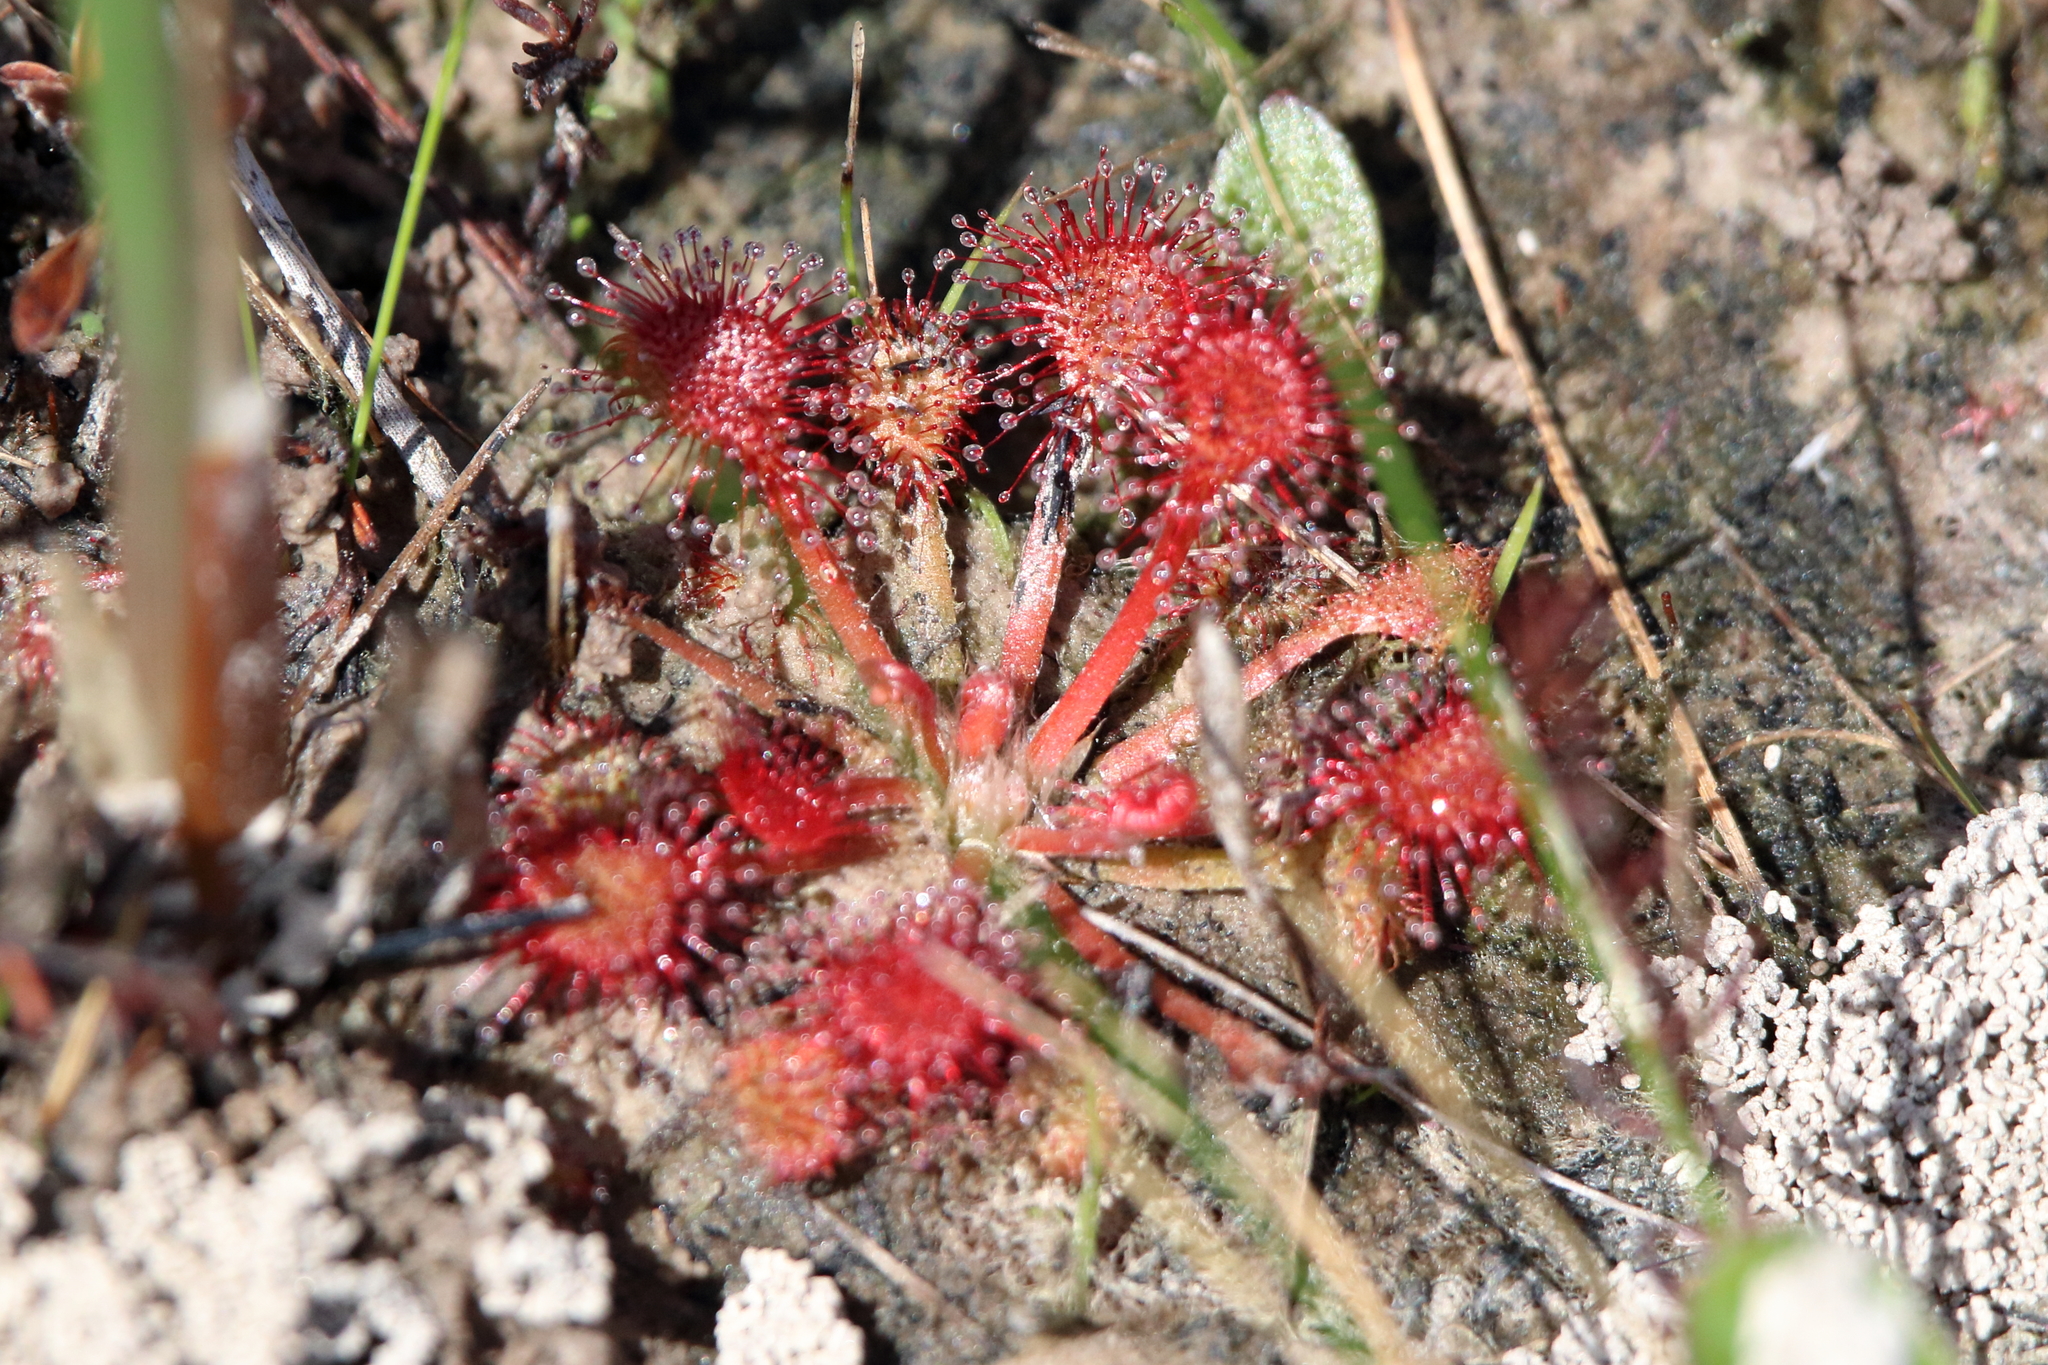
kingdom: Plantae
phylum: Tracheophyta
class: Magnoliopsida
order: Caryophyllales
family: Droseraceae
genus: Drosera
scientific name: Drosera capillaris
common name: Pink sundew
